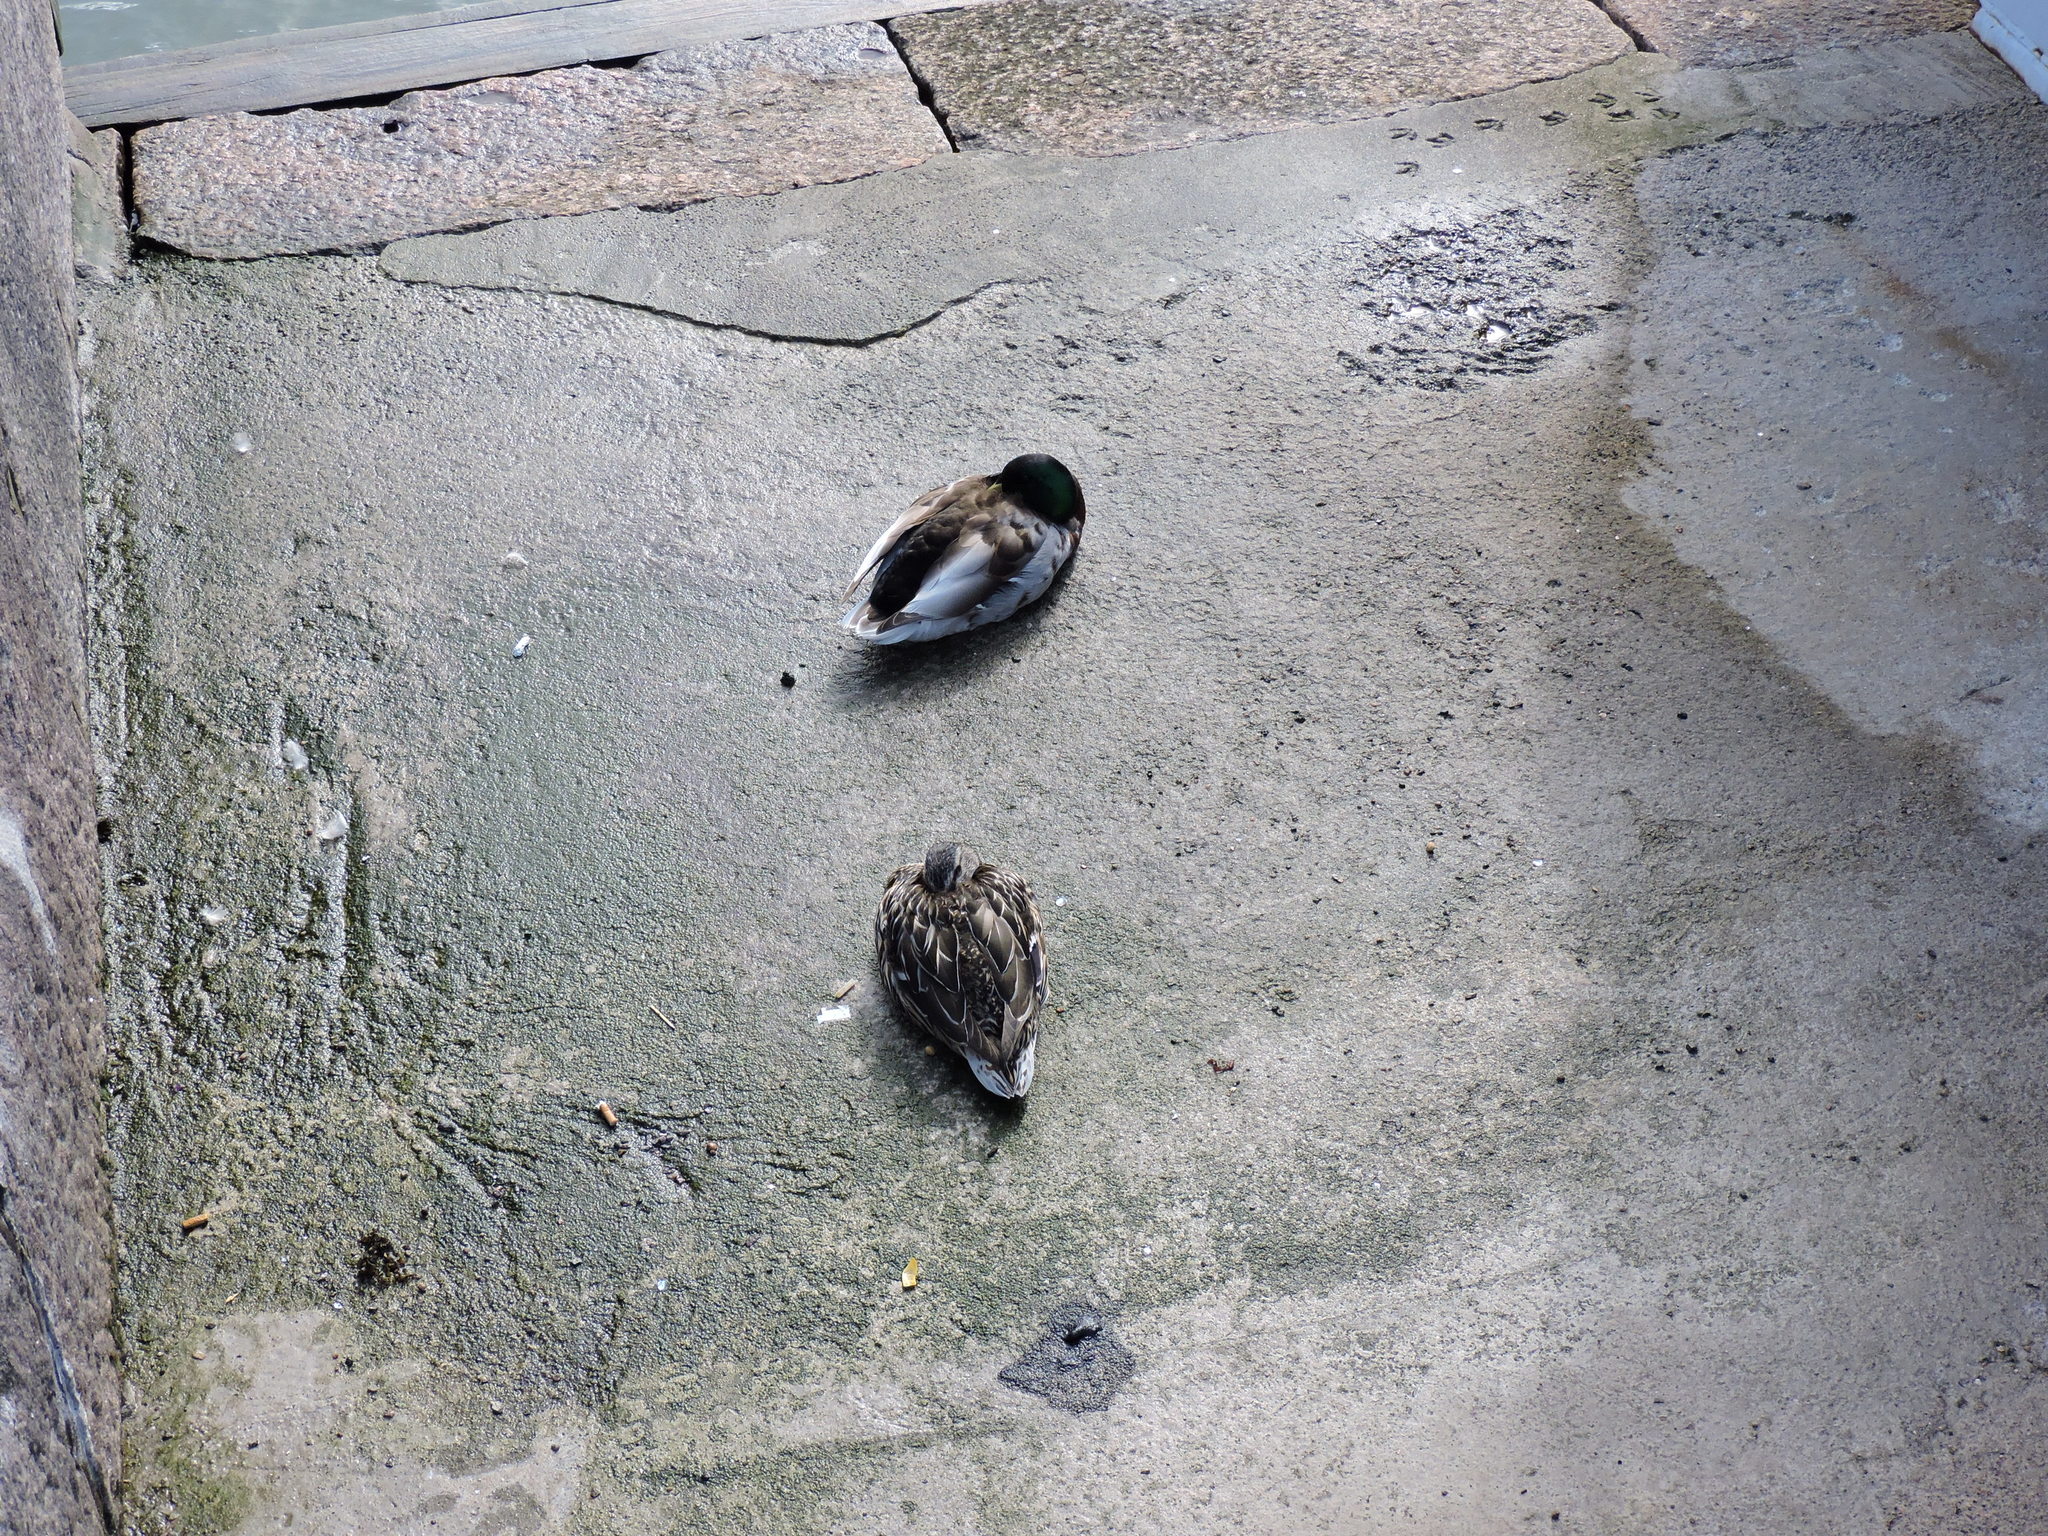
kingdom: Animalia
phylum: Chordata
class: Aves
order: Anseriformes
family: Anatidae
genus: Anas
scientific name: Anas platyrhynchos
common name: Mallard
